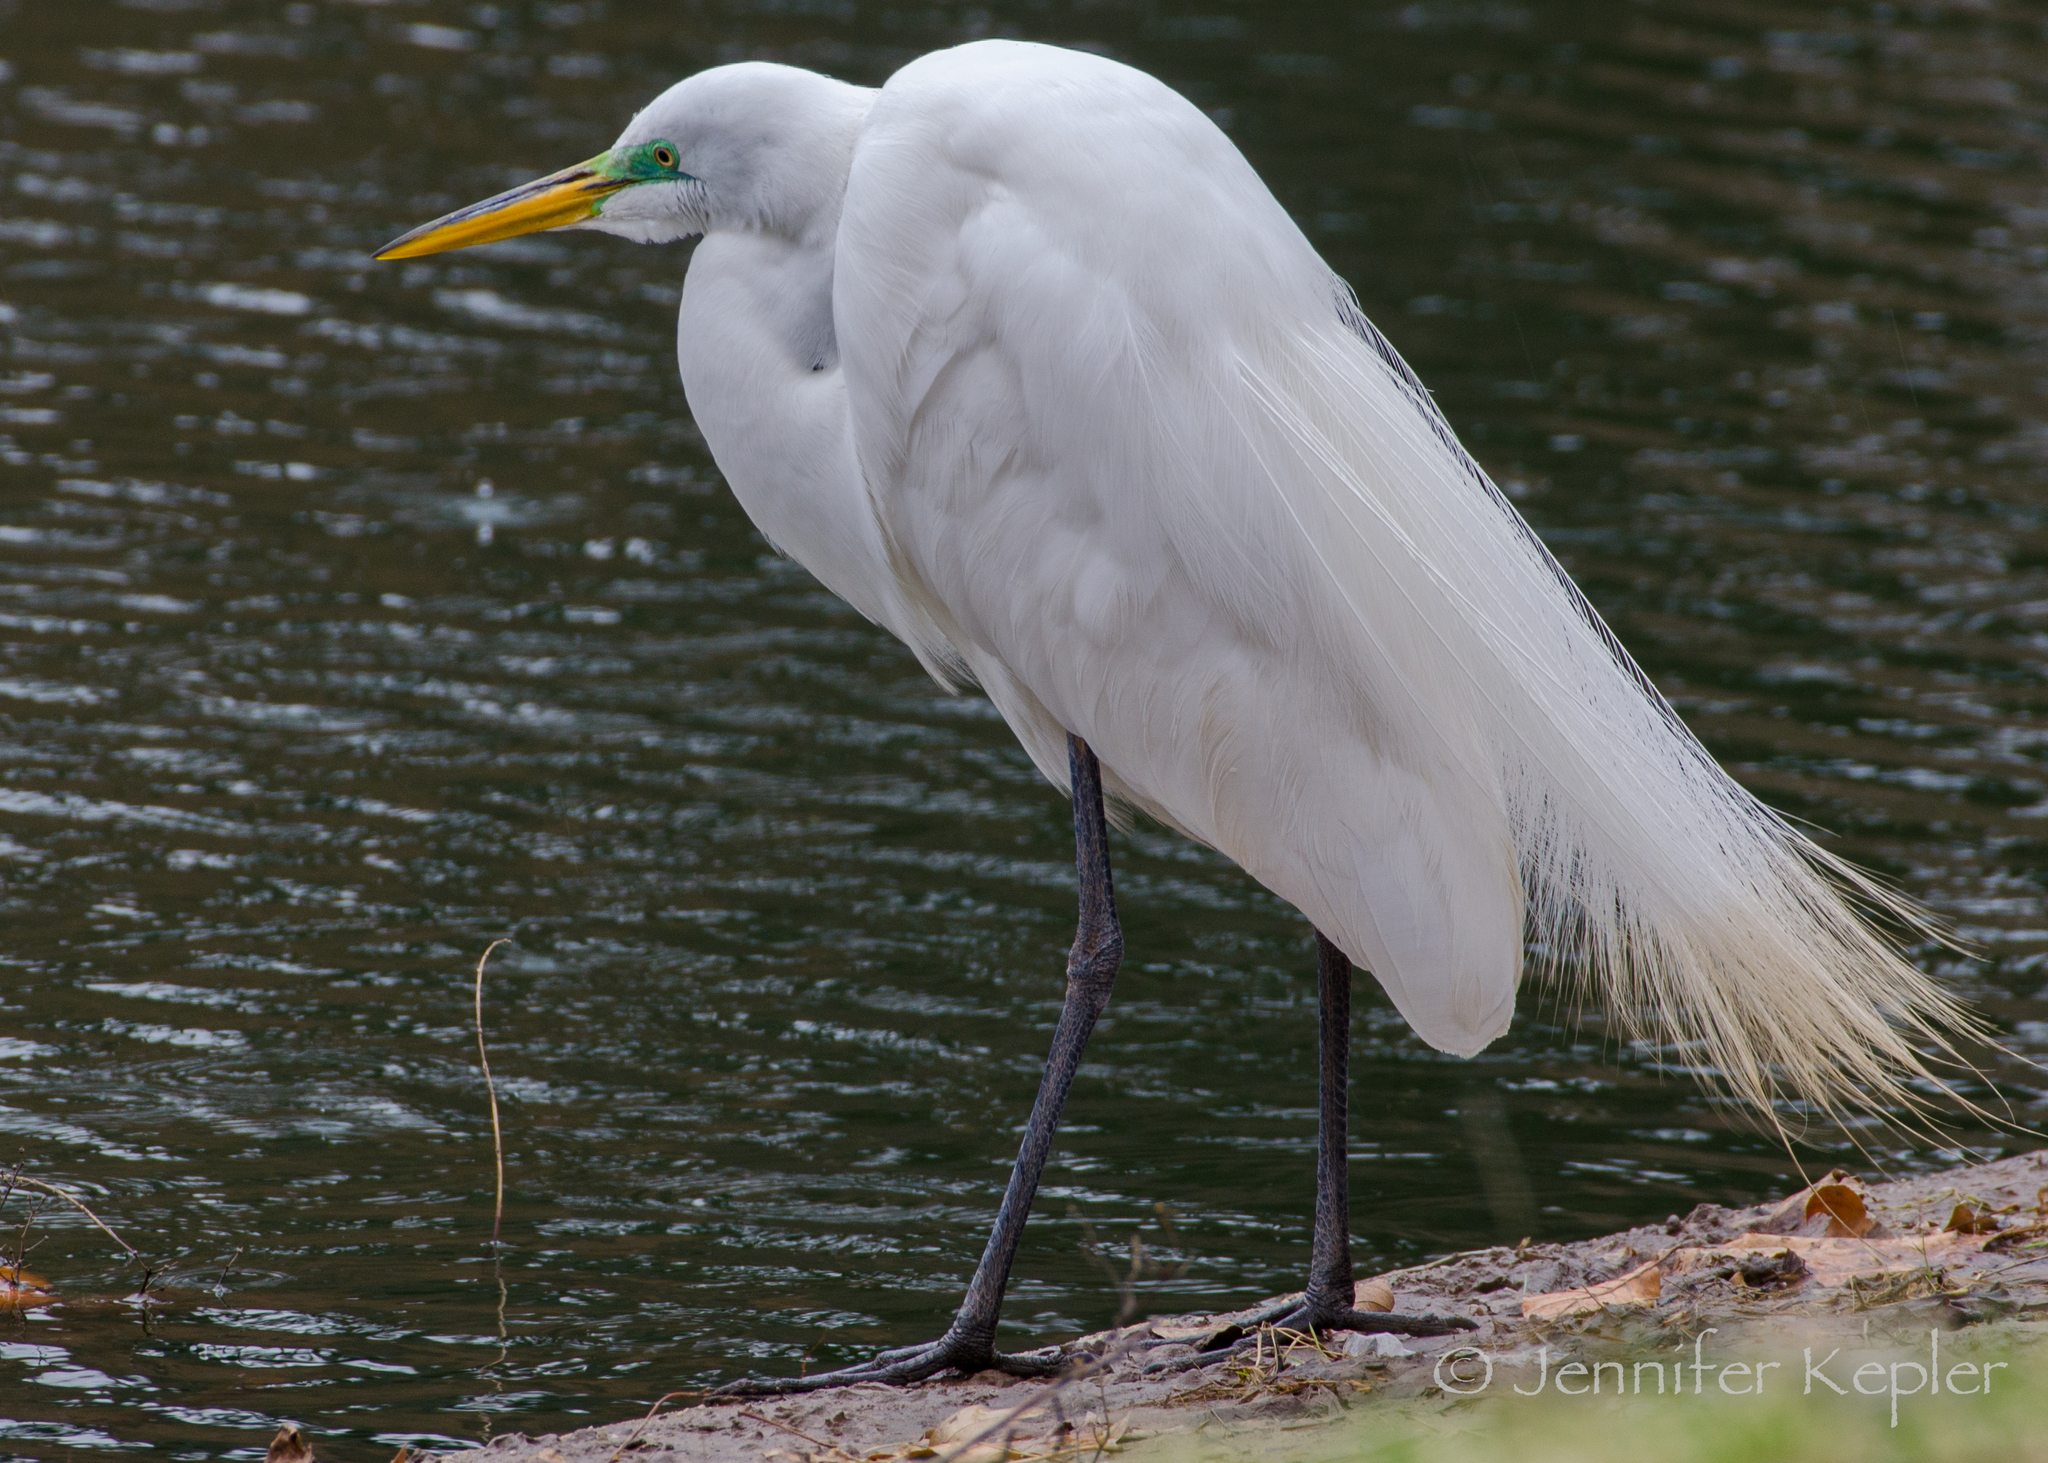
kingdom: Animalia
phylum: Chordata
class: Aves
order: Pelecaniformes
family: Ardeidae
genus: Ardea
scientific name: Ardea alba
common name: Great egret
